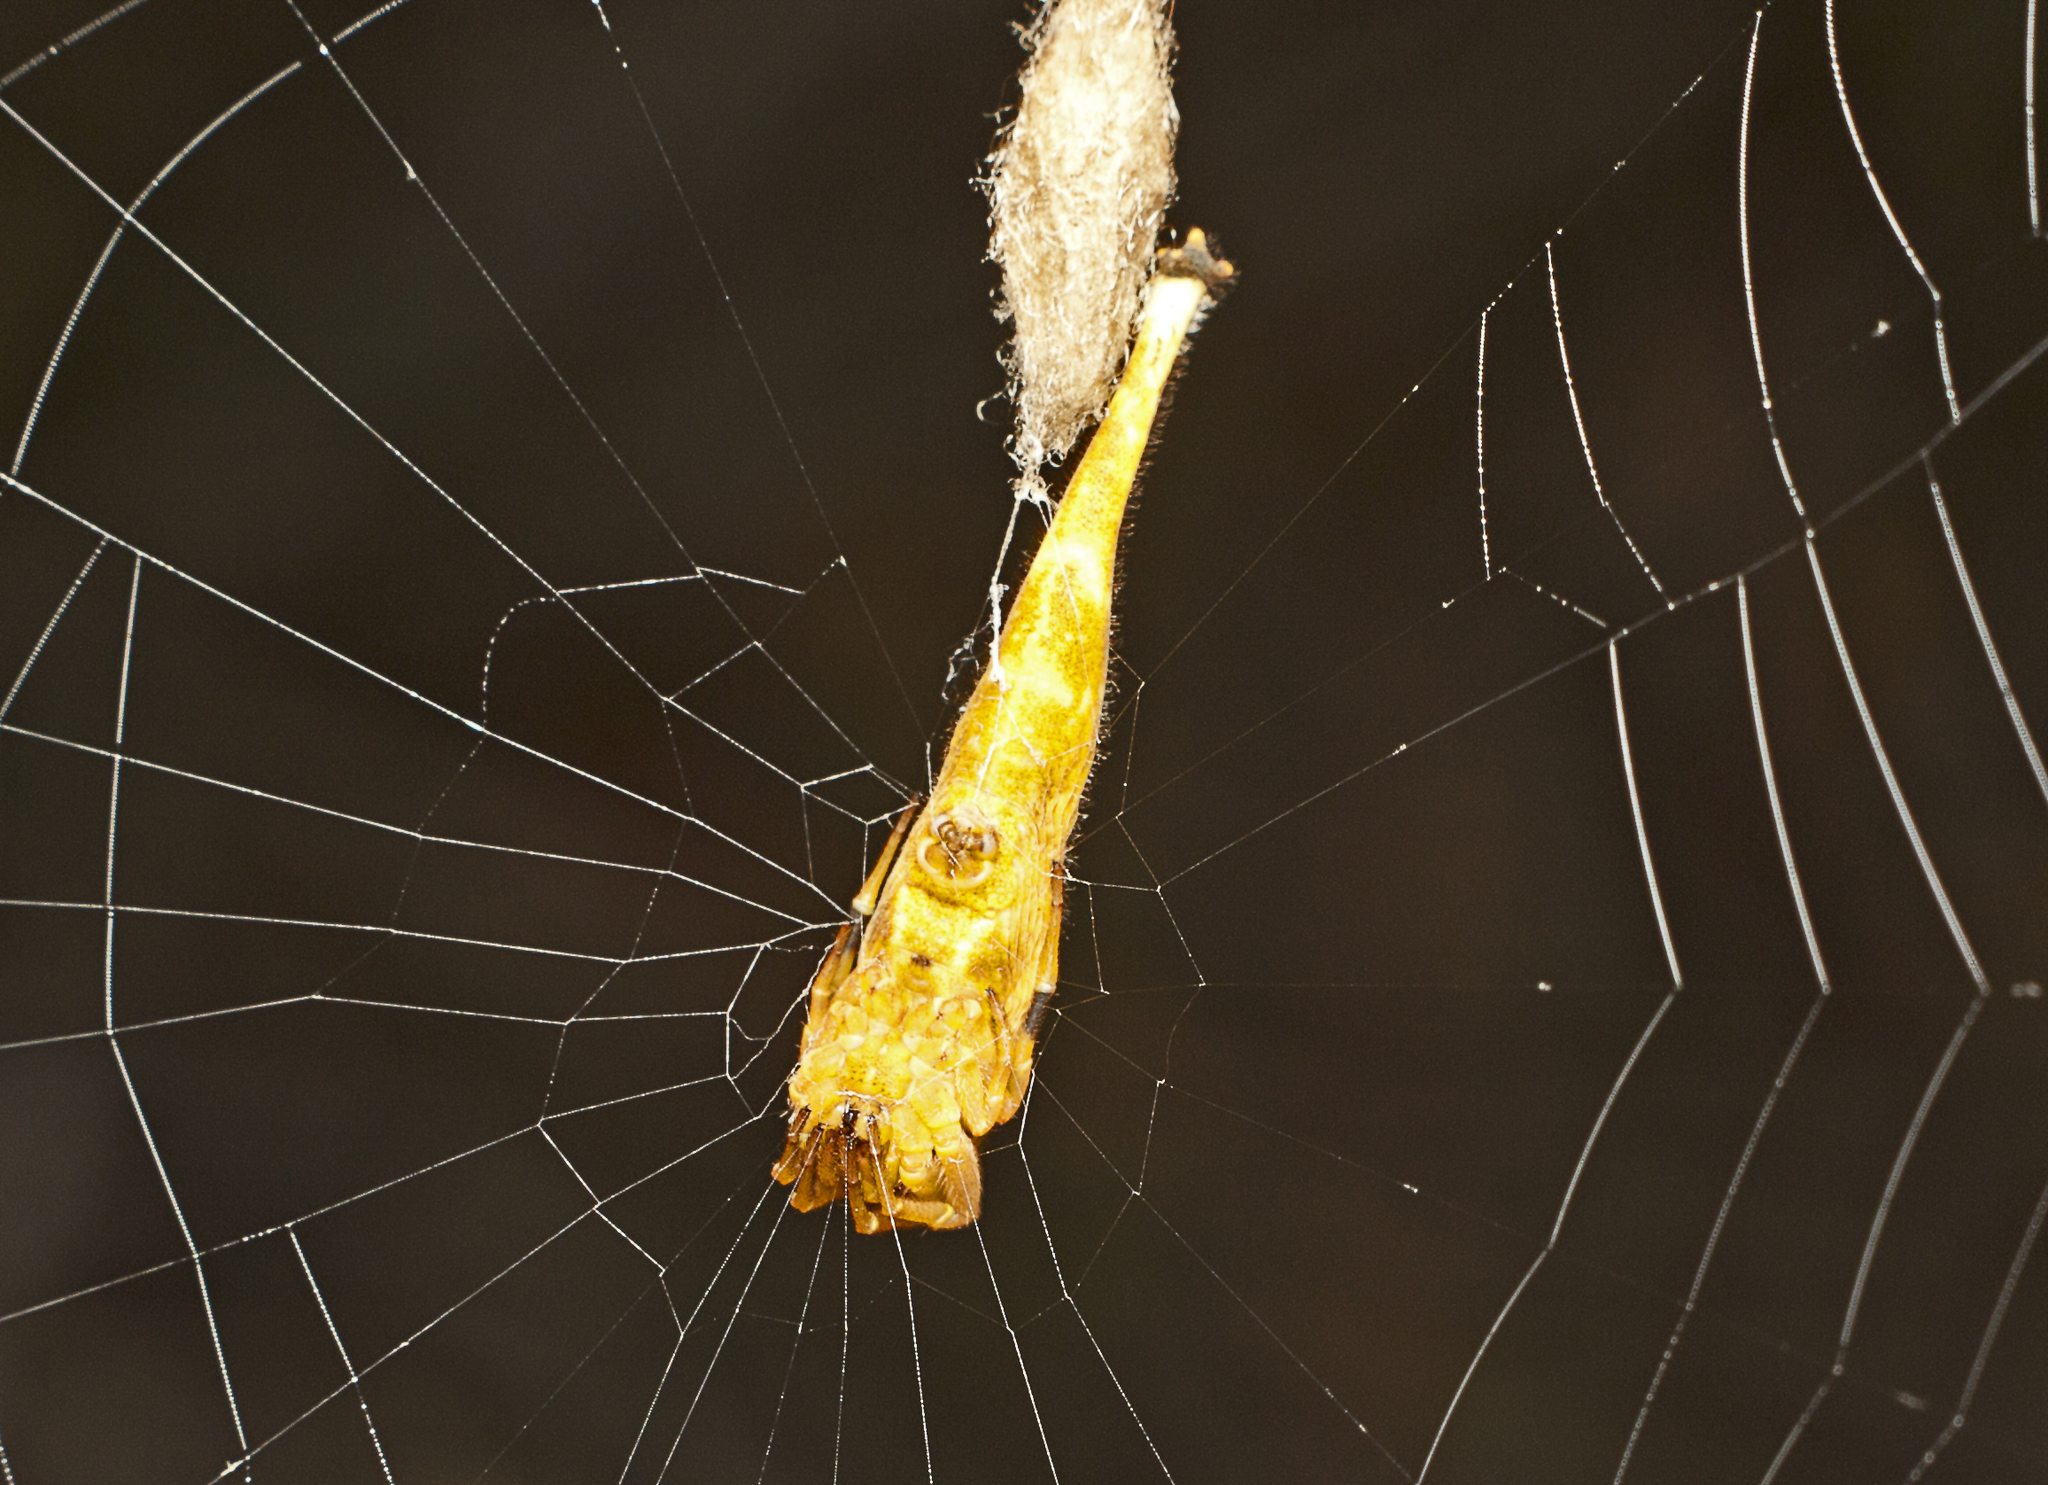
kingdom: Animalia
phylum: Arthropoda
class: Arachnida
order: Araneae
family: Araneidae
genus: Arachnura
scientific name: Arachnura higginsi
